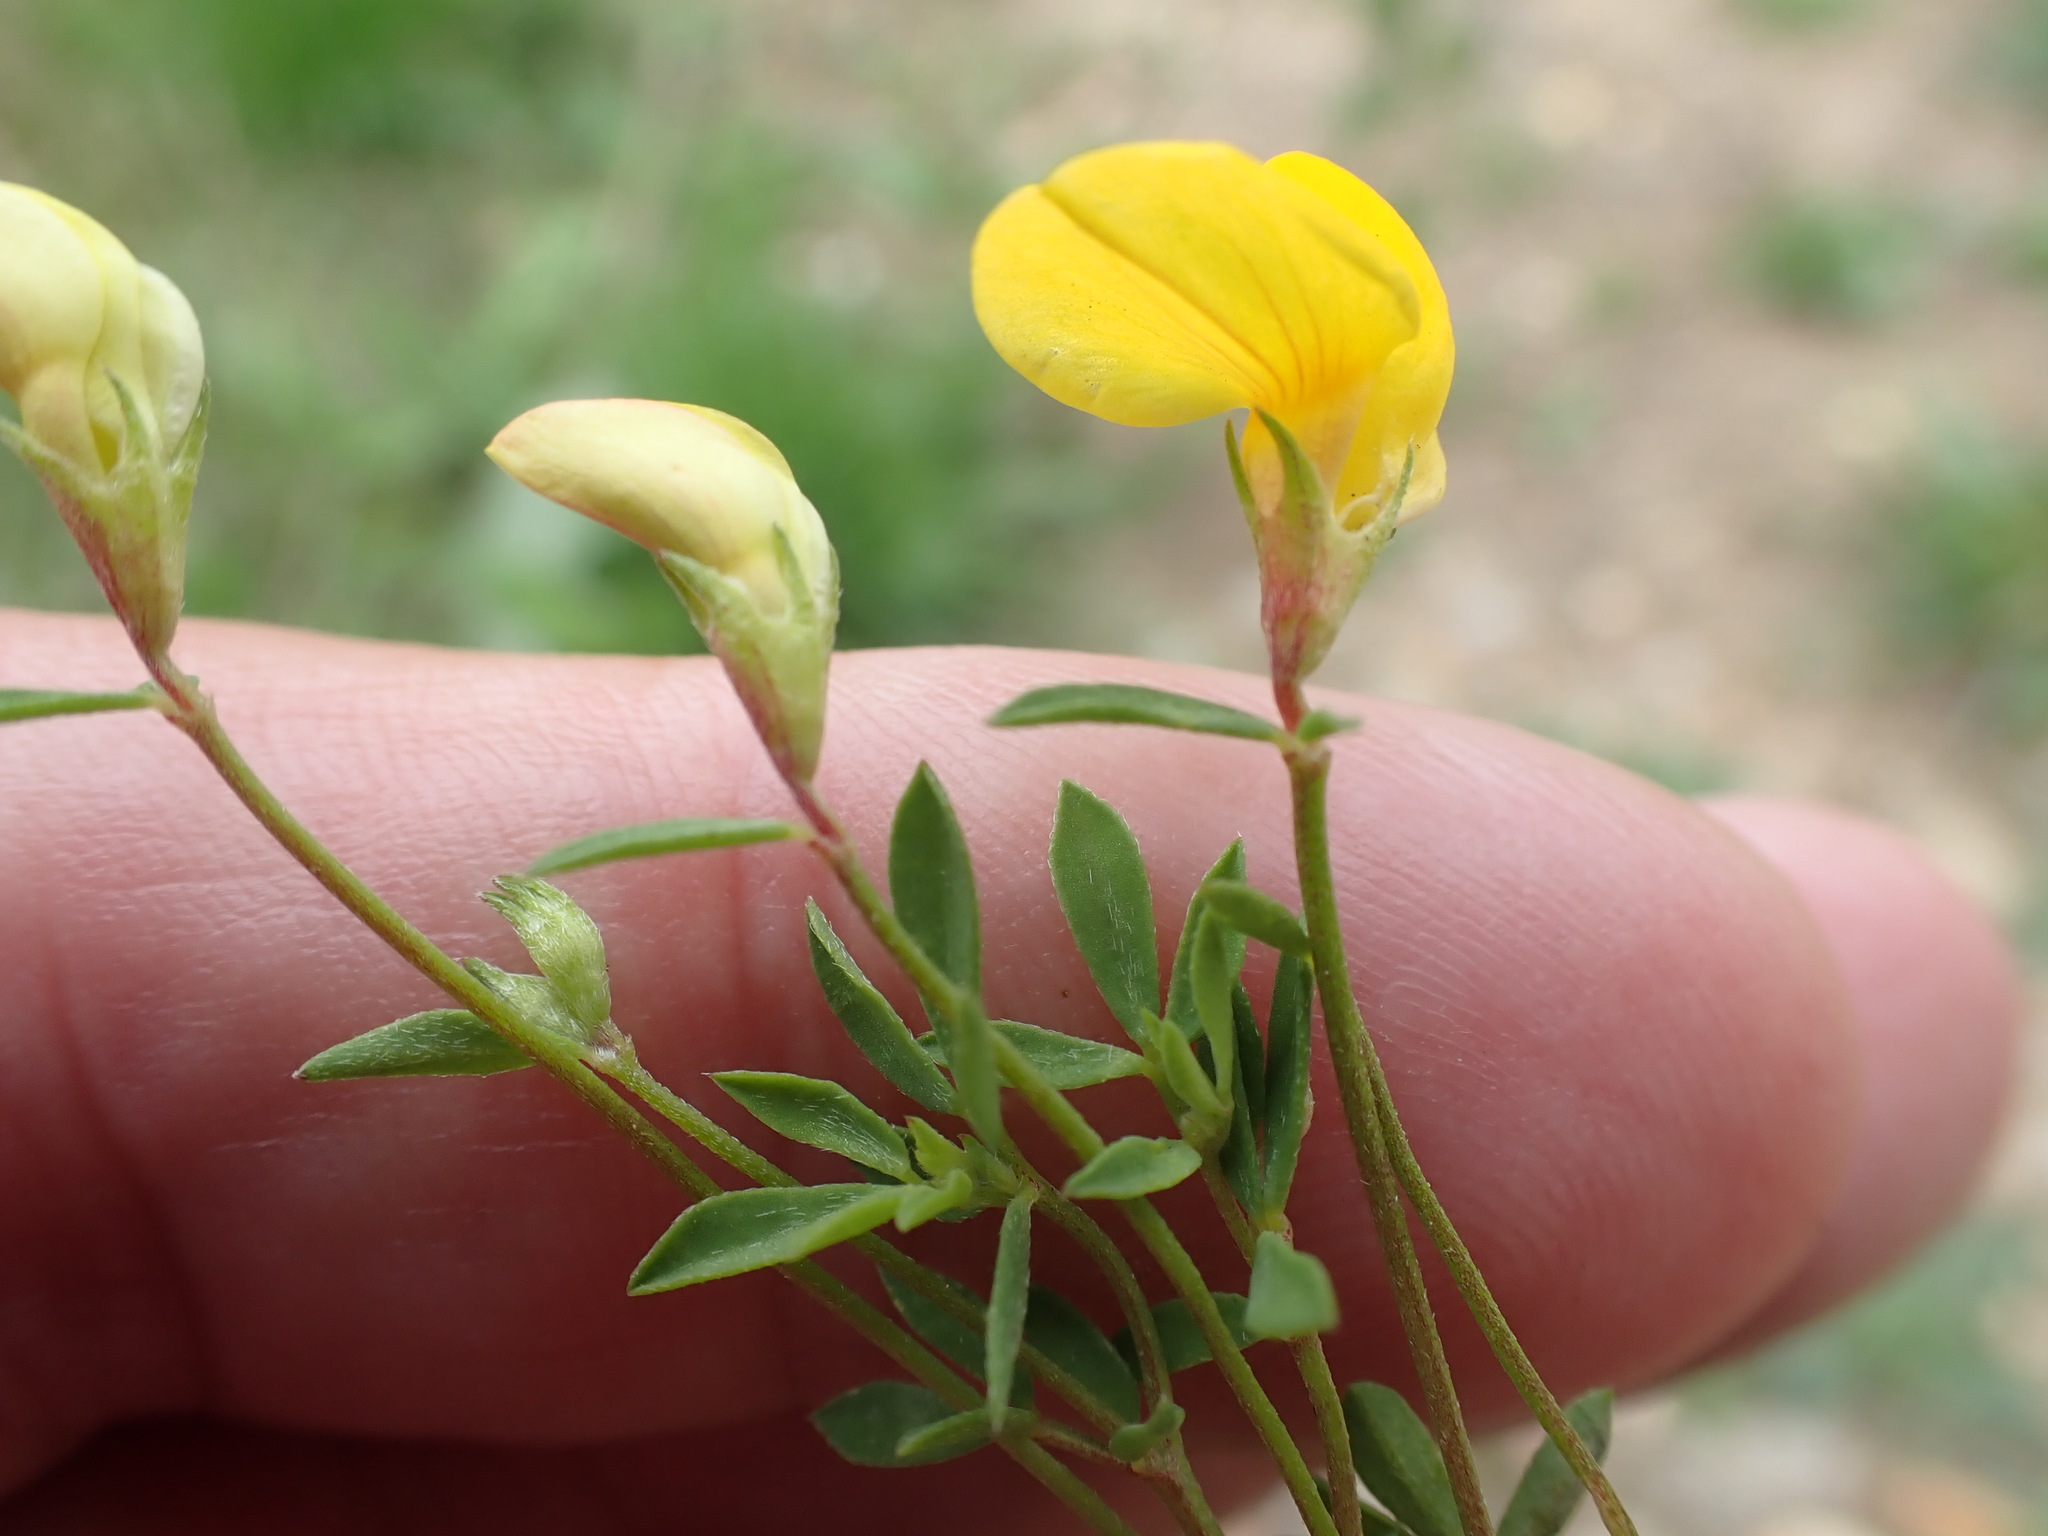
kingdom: Plantae
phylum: Tracheophyta
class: Magnoliopsida
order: Fabales
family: Fabaceae
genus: Lotus
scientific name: Lotus tenuis
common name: Narrow-leaved bird's-foot-trefoil
